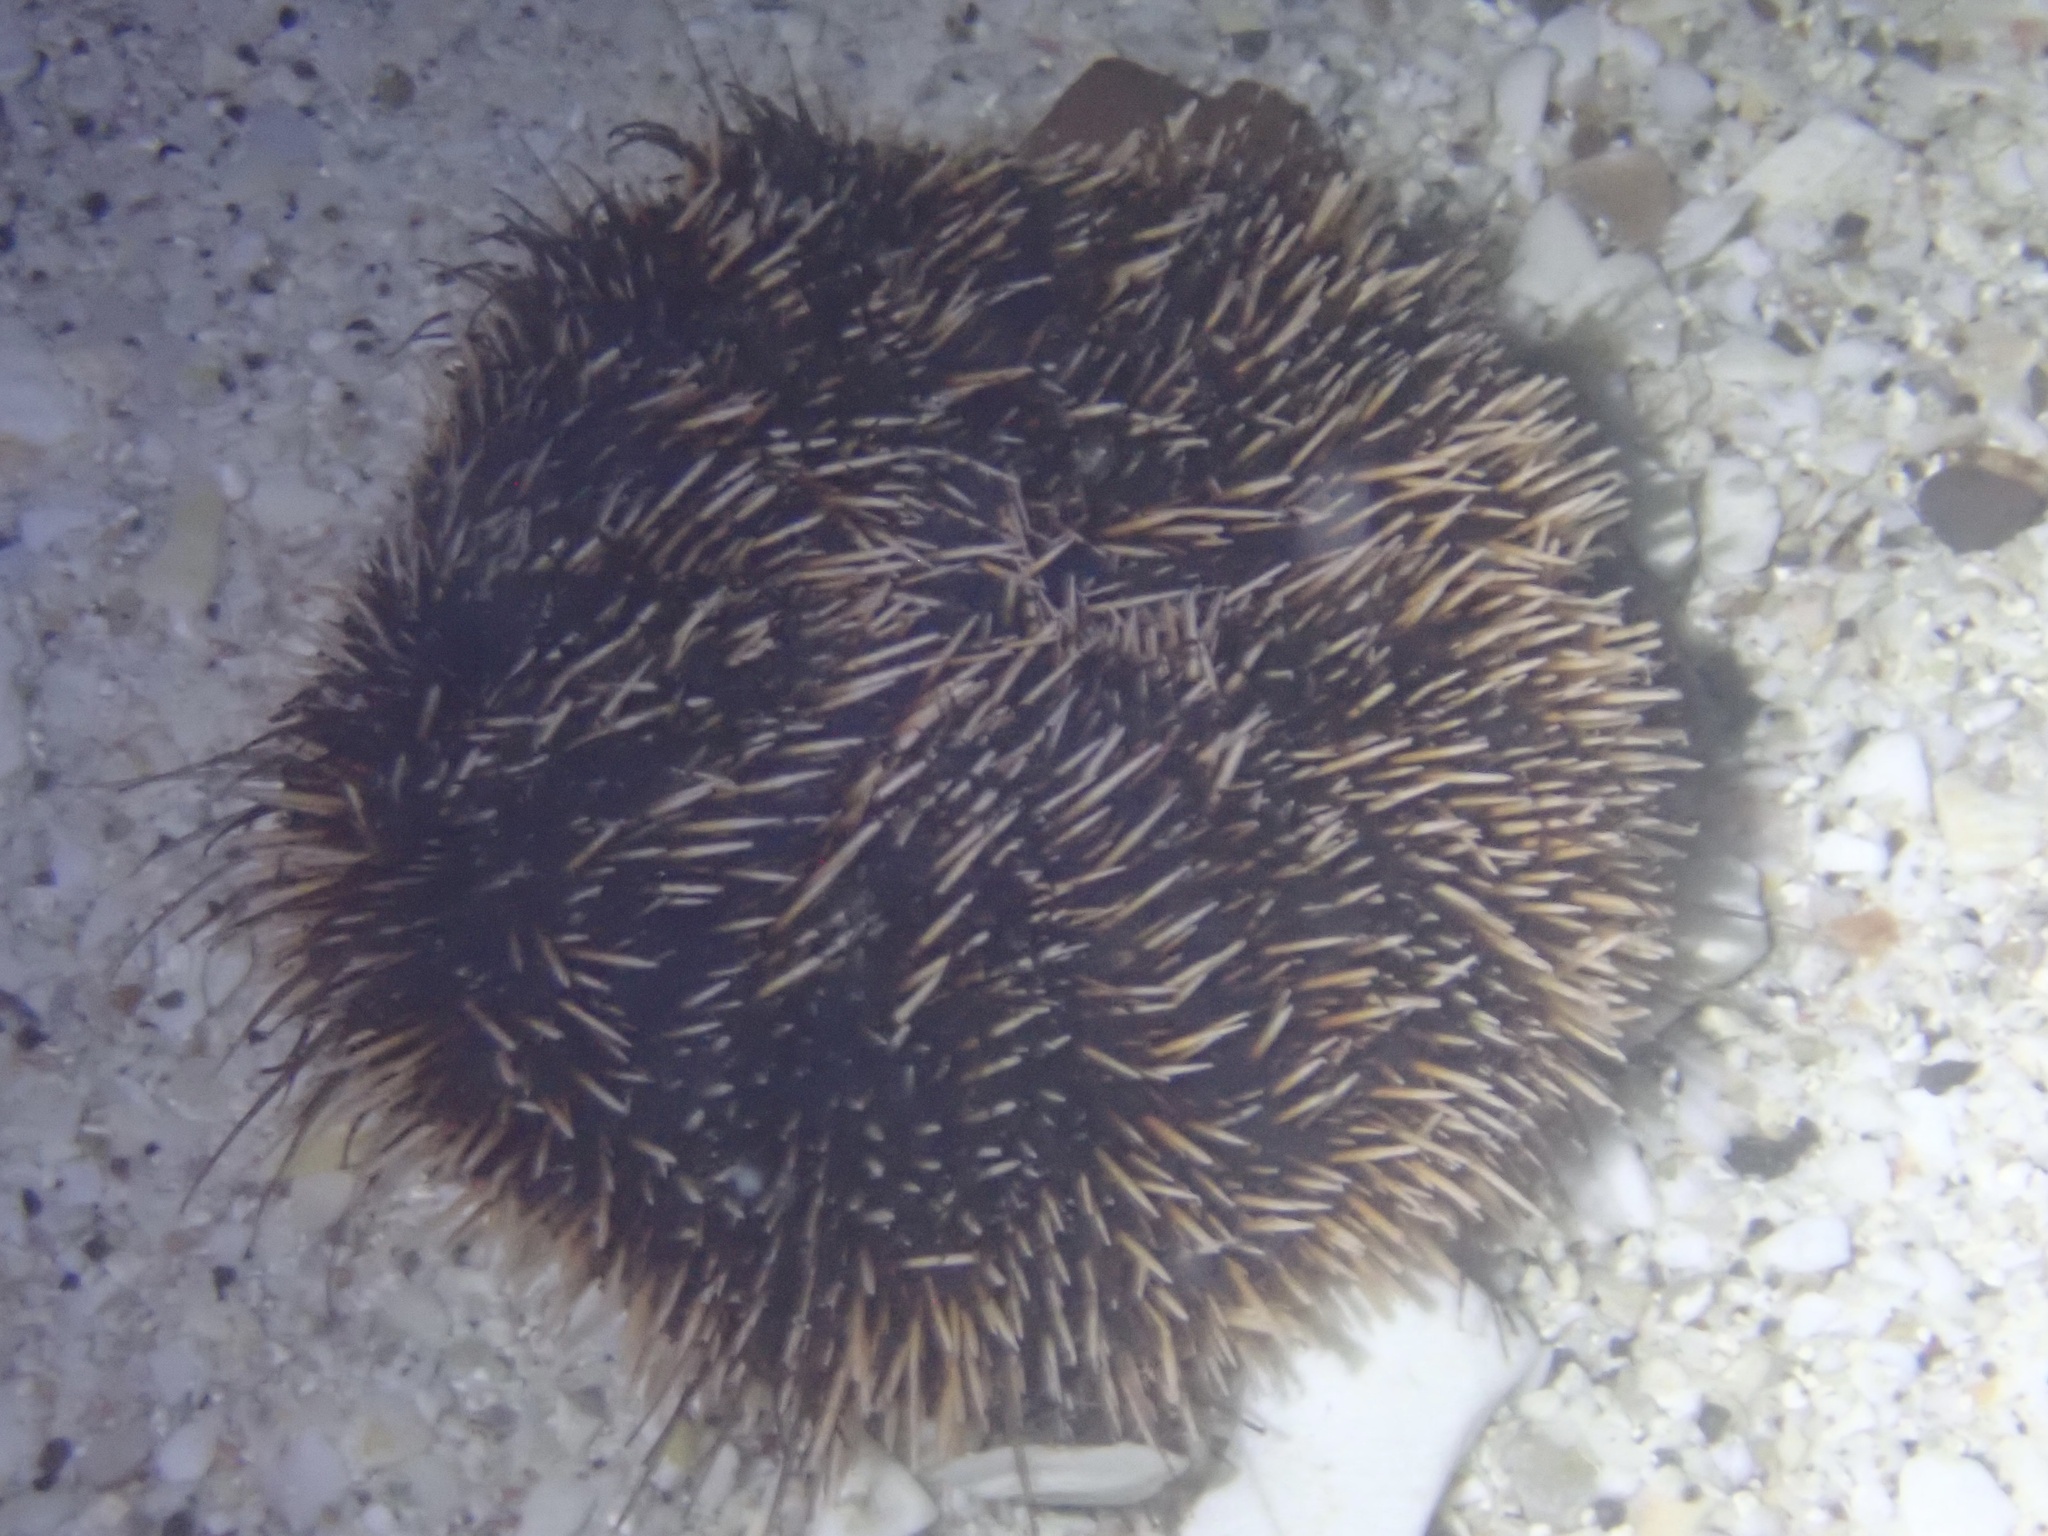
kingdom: Animalia
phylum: Echinodermata
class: Echinoidea
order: Camarodonta
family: Toxopneustidae
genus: Tripneustes
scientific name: Tripneustes depressus
